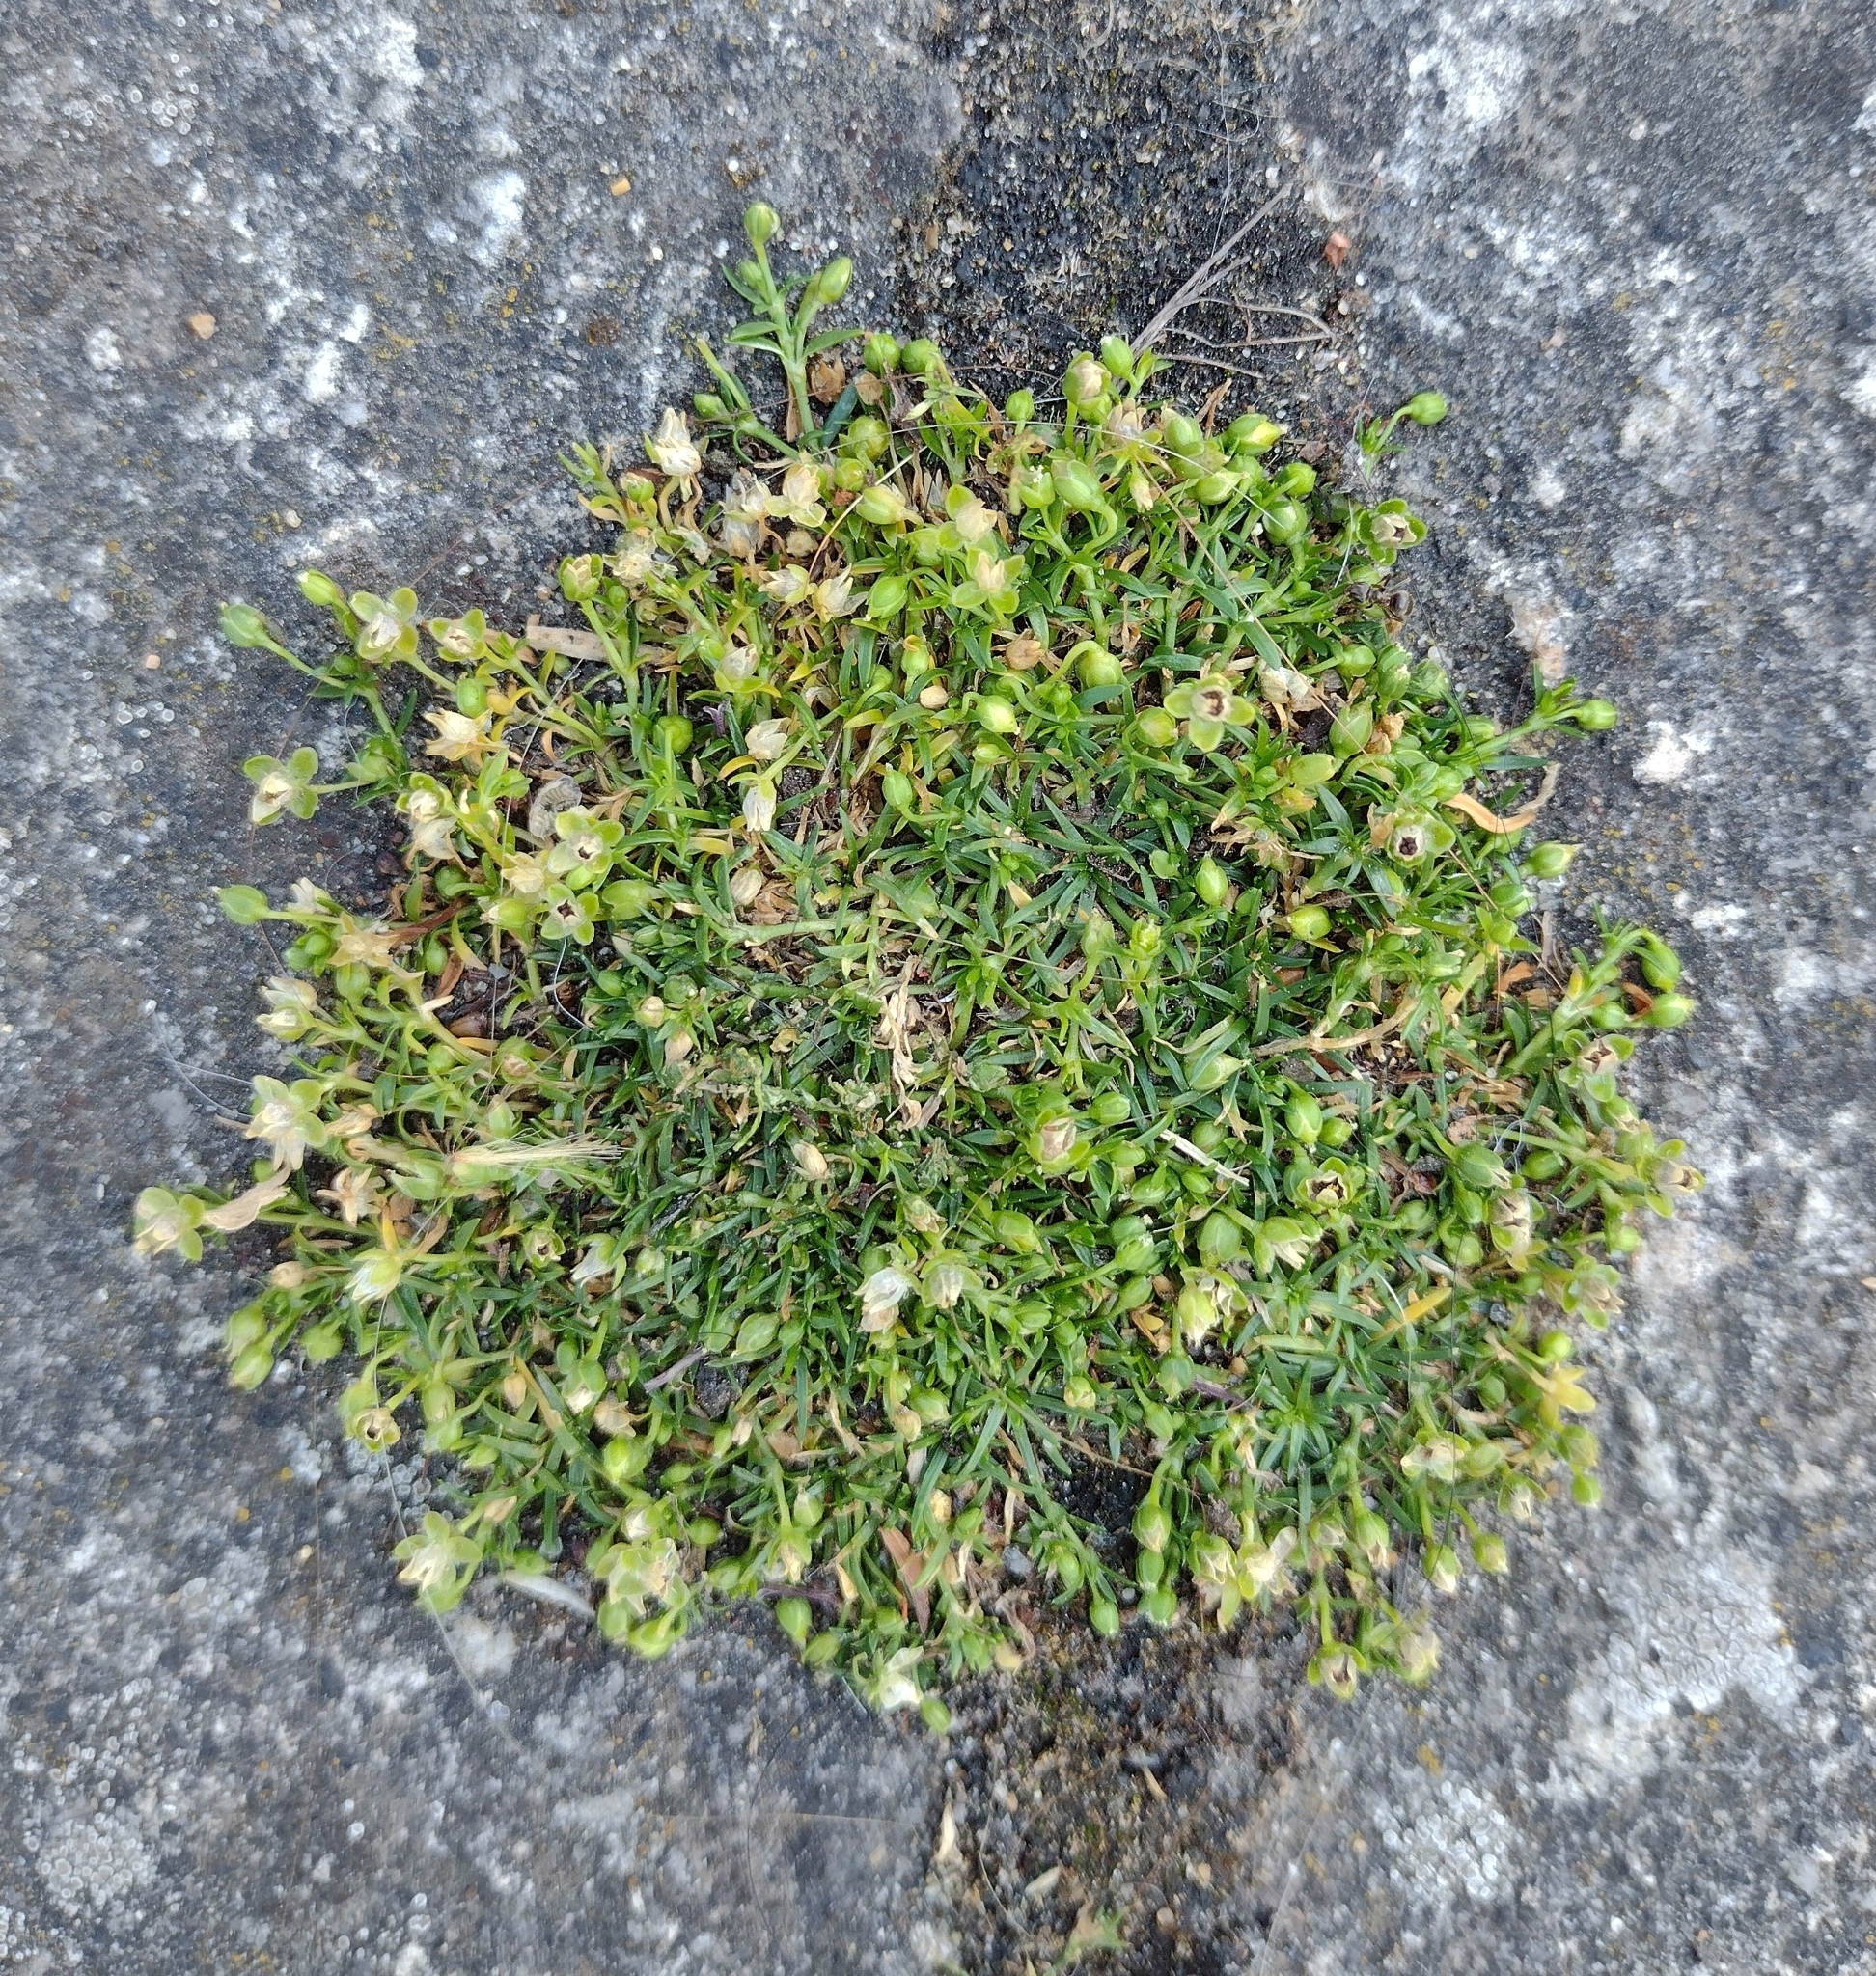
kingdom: Plantae
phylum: Tracheophyta
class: Magnoliopsida
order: Caryophyllales
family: Caryophyllaceae
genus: Sagina
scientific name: Sagina procumbens
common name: Procumbent pearlwort
